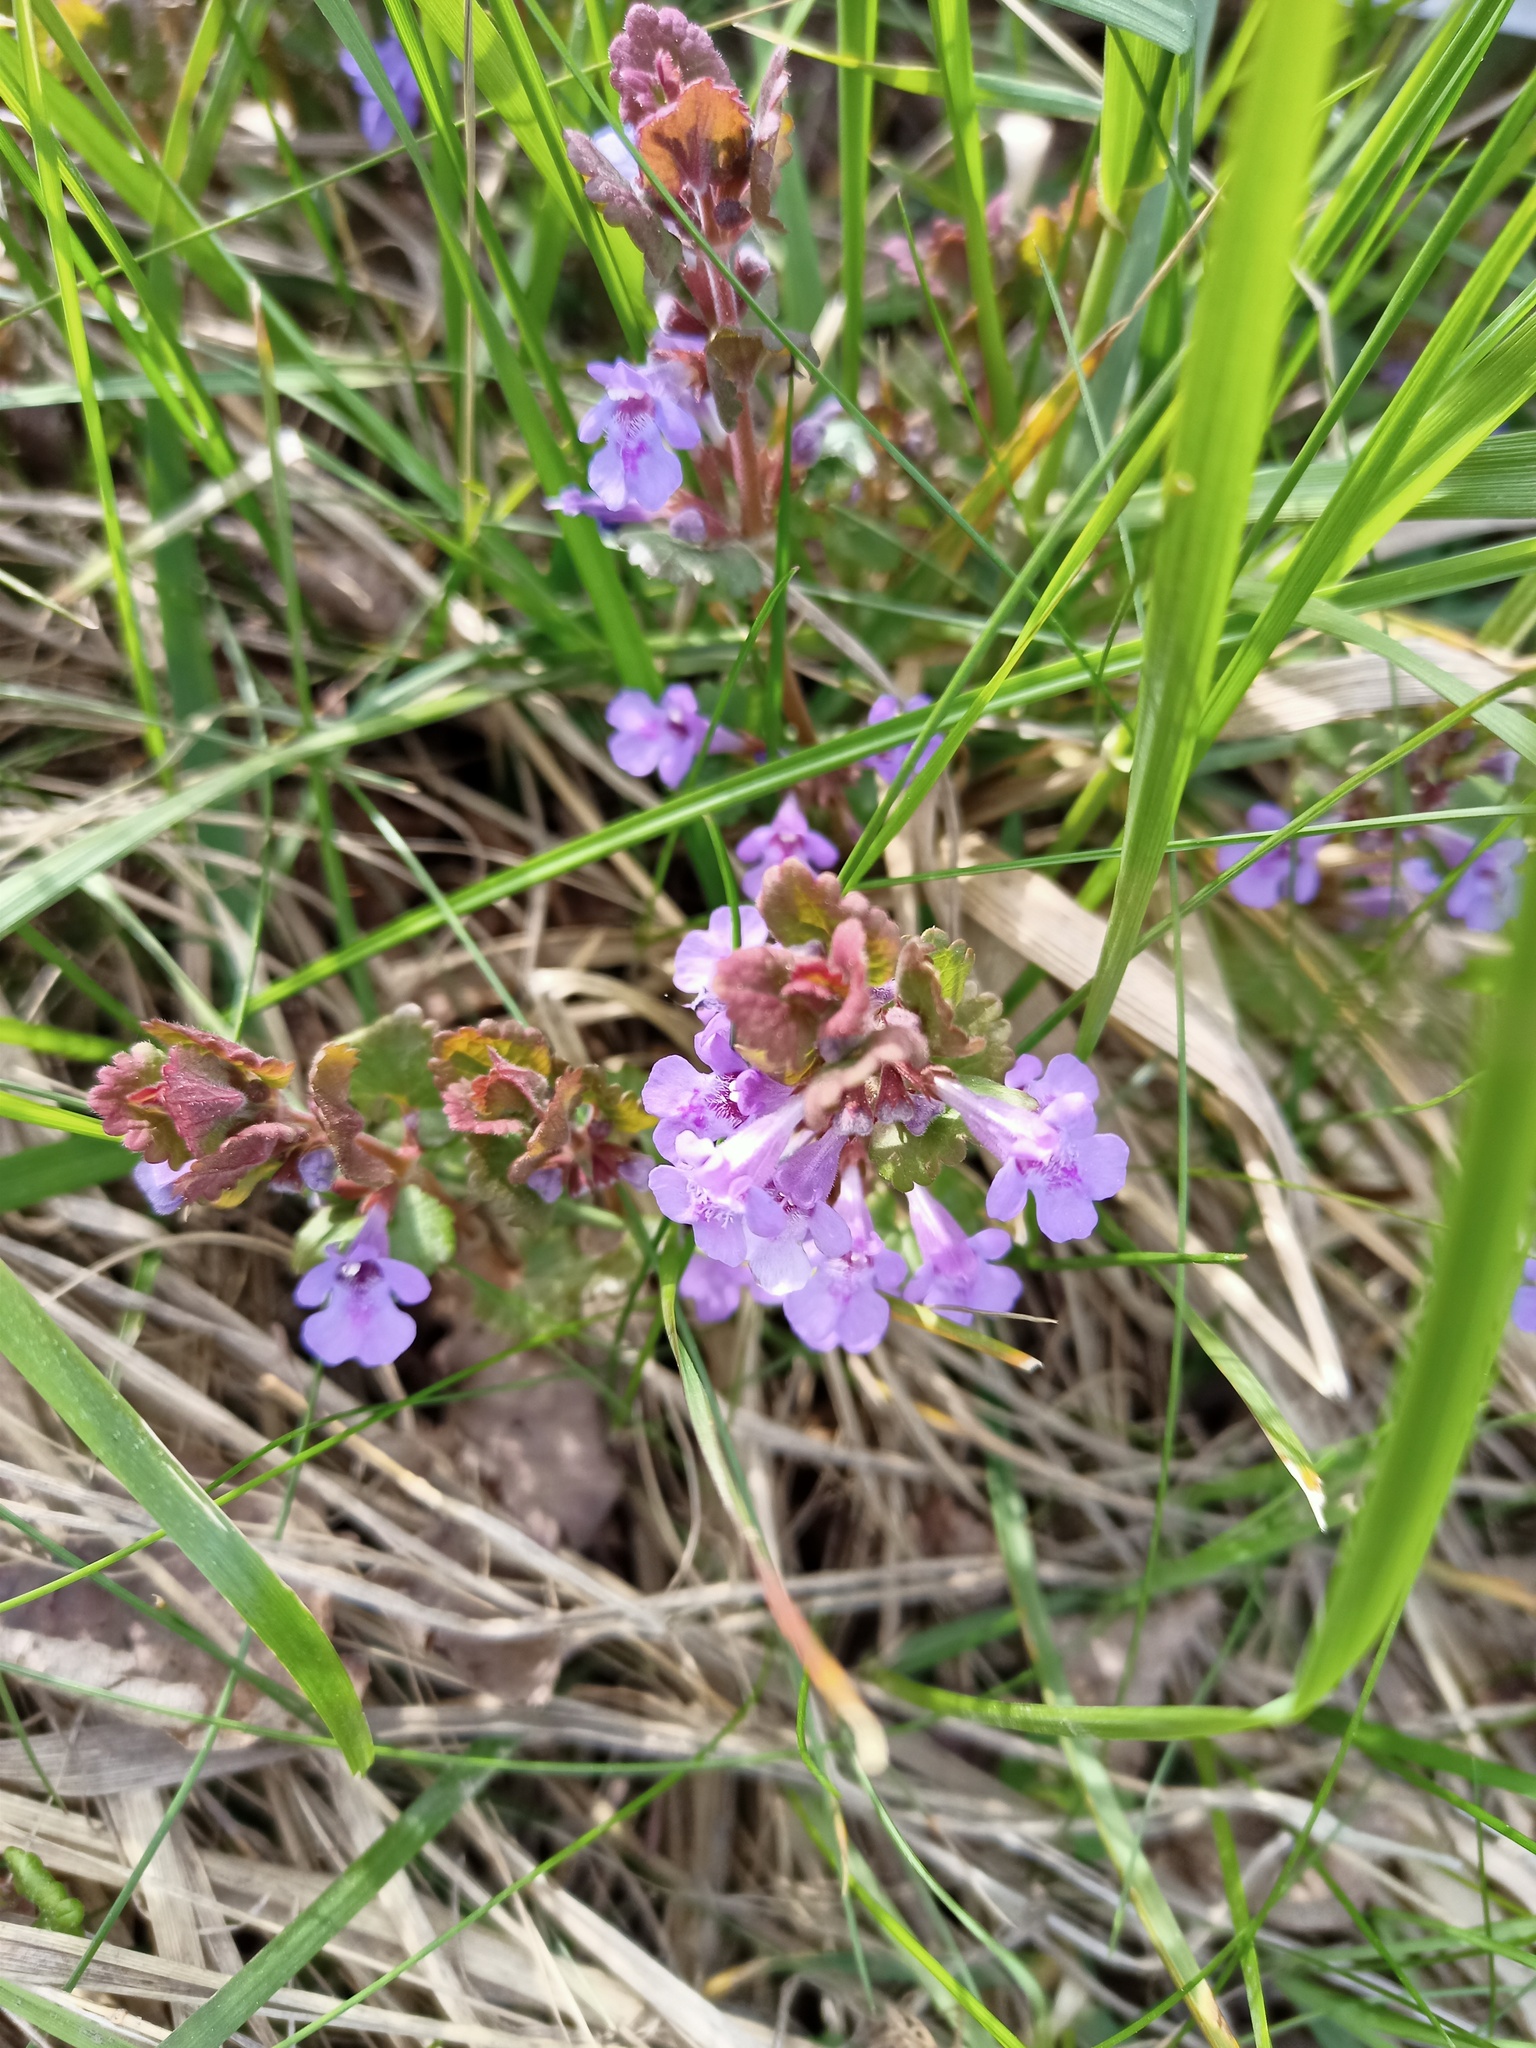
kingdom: Plantae
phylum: Tracheophyta
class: Magnoliopsida
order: Lamiales
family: Lamiaceae
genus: Glechoma
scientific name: Glechoma hederacea
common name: Ground ivy
